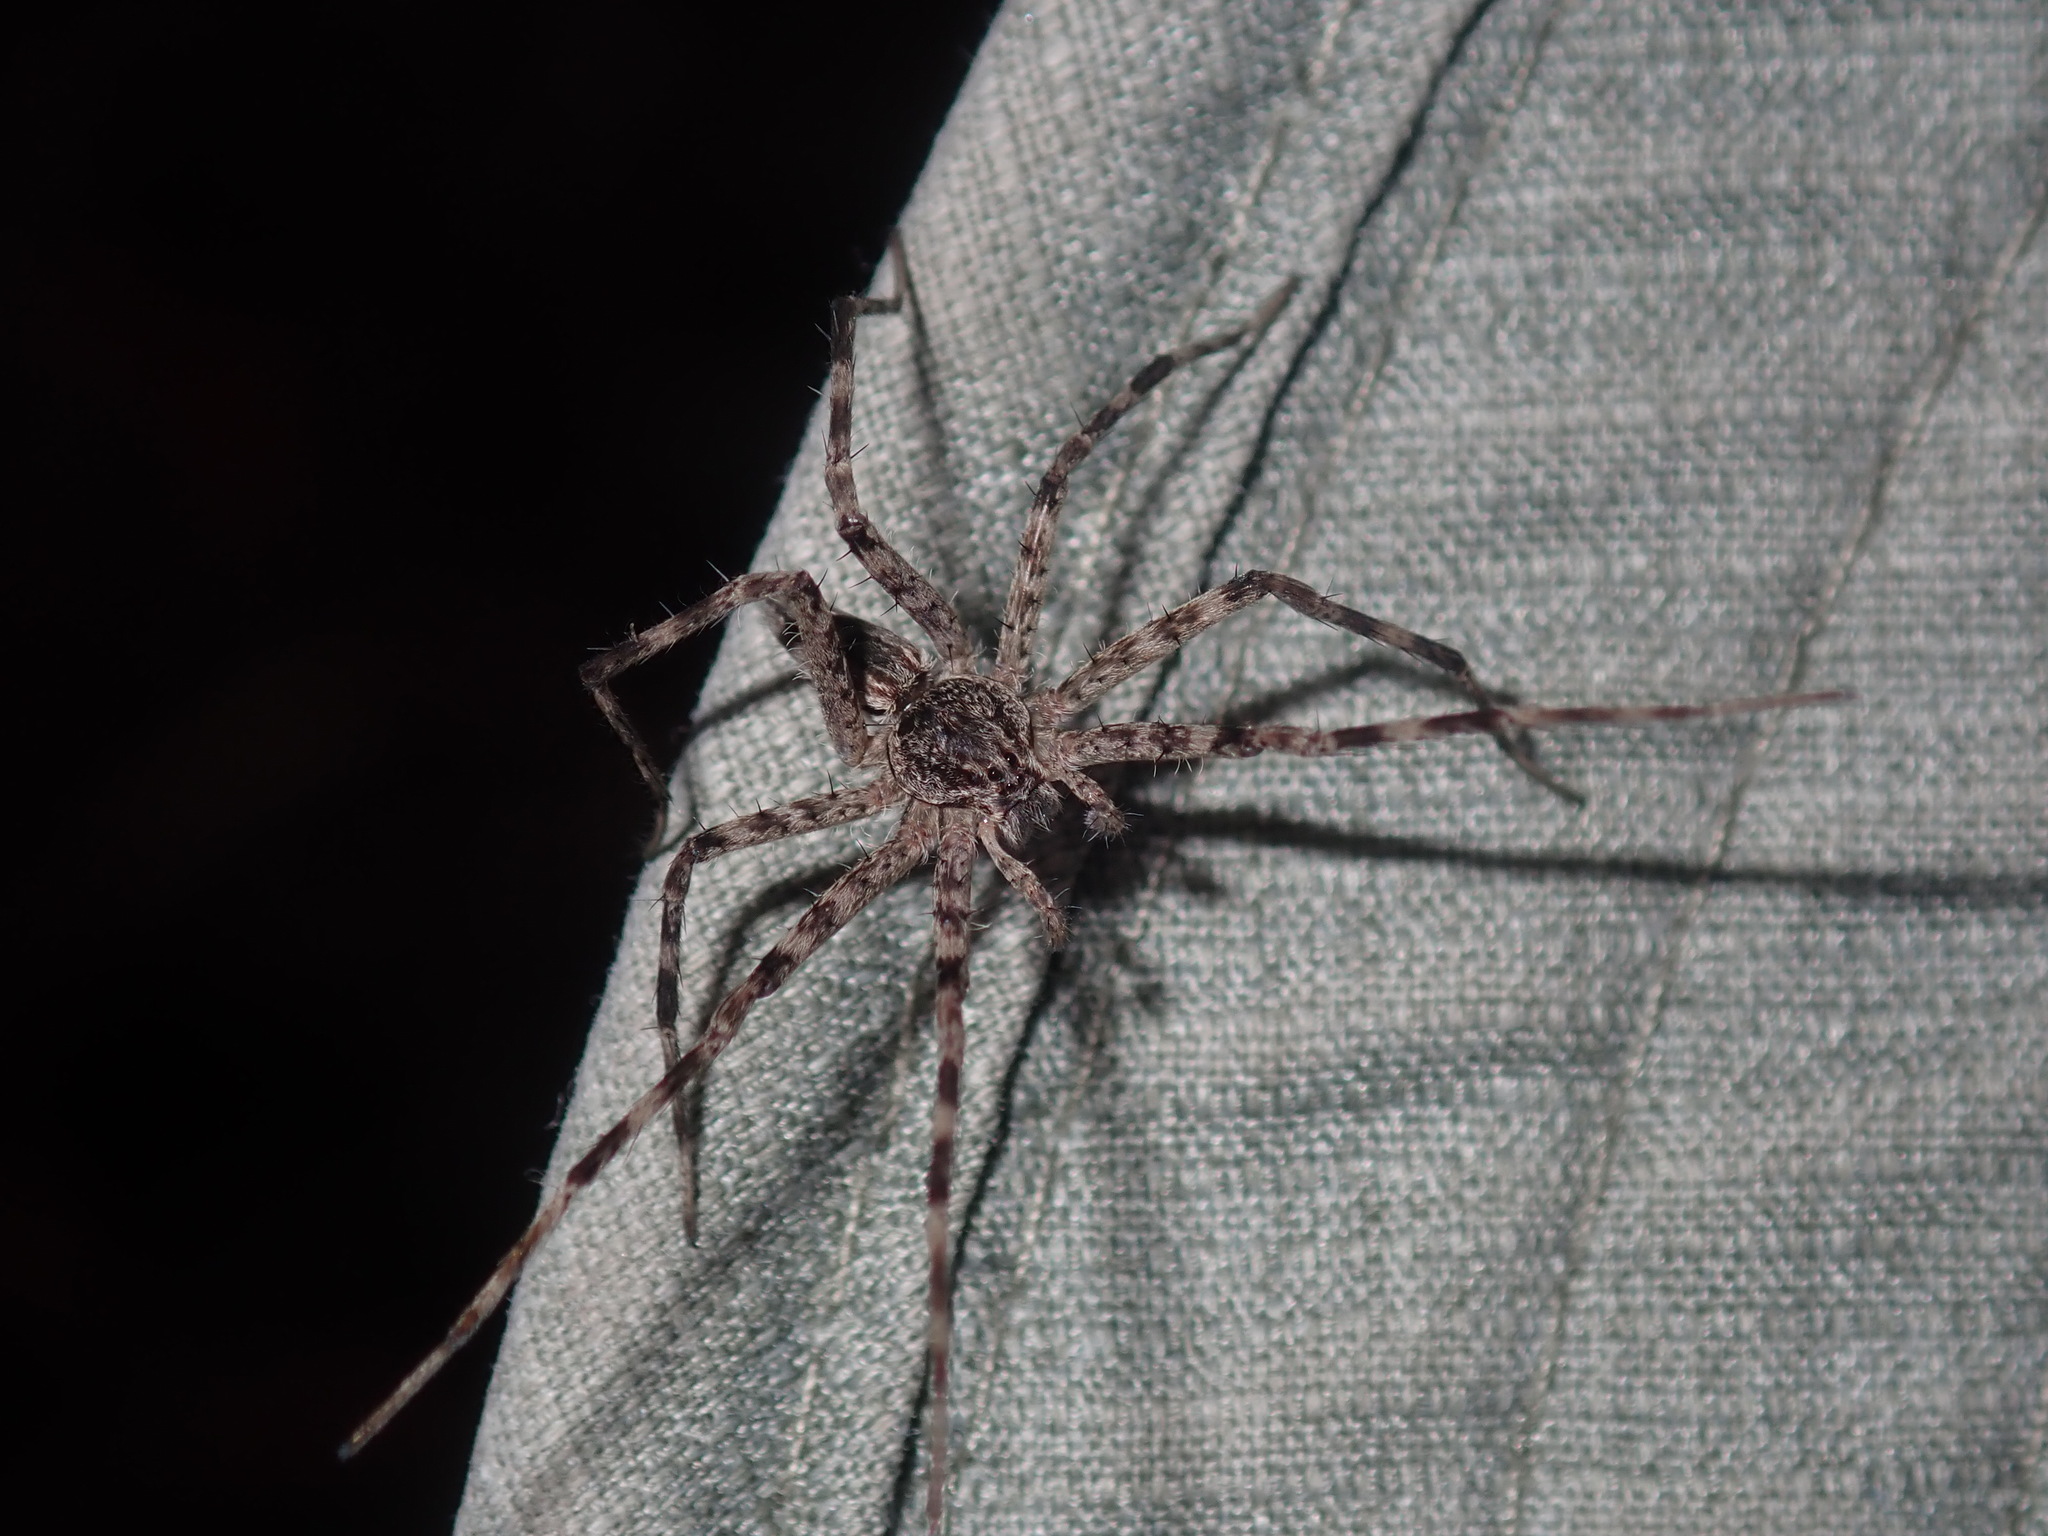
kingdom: Animalia
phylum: Arthropoda
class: Arachnida
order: Araneae
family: Pisauridae
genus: Megadolomedes
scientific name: Megadolomedes australianus
